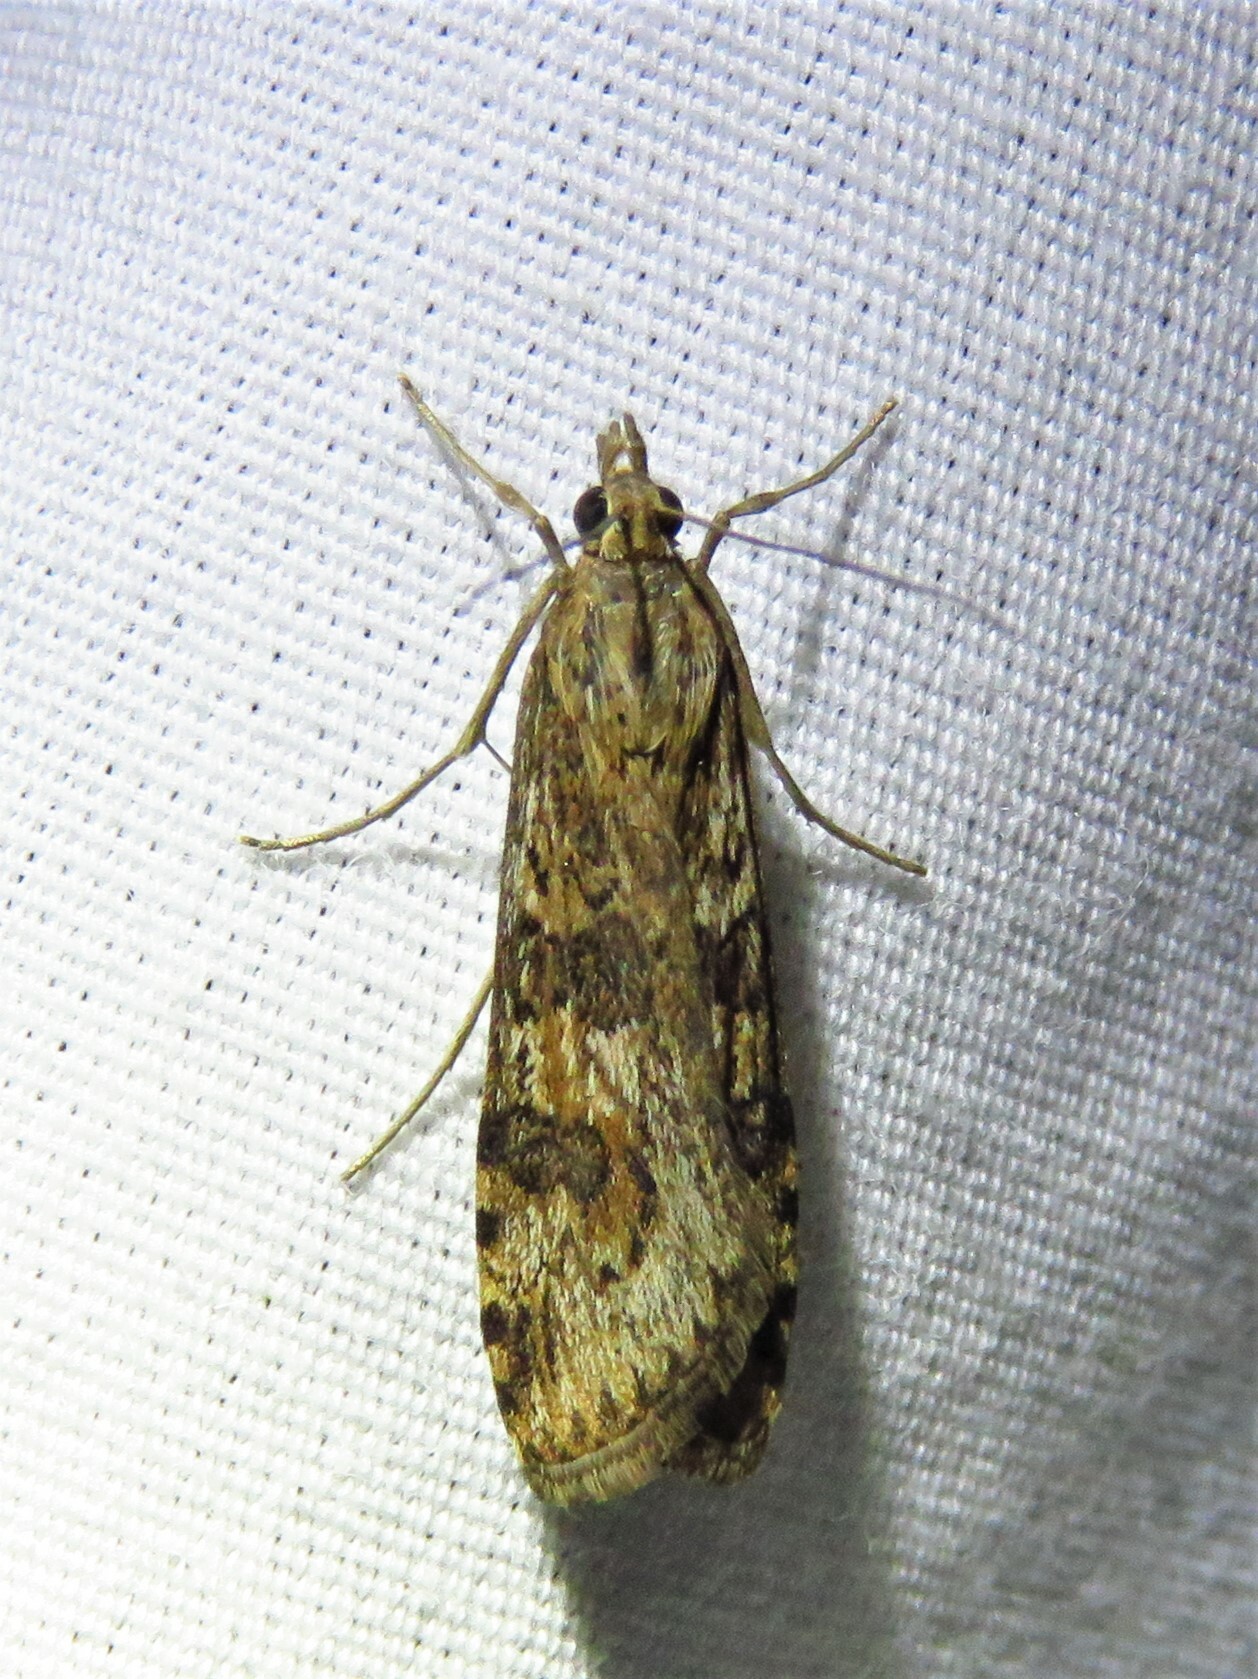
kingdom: Animalia
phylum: Arthropoda
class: Insecta
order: Lepidoptera
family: Crambidae
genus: Nomophila
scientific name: Nomophila nearctica
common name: American rush veneer
